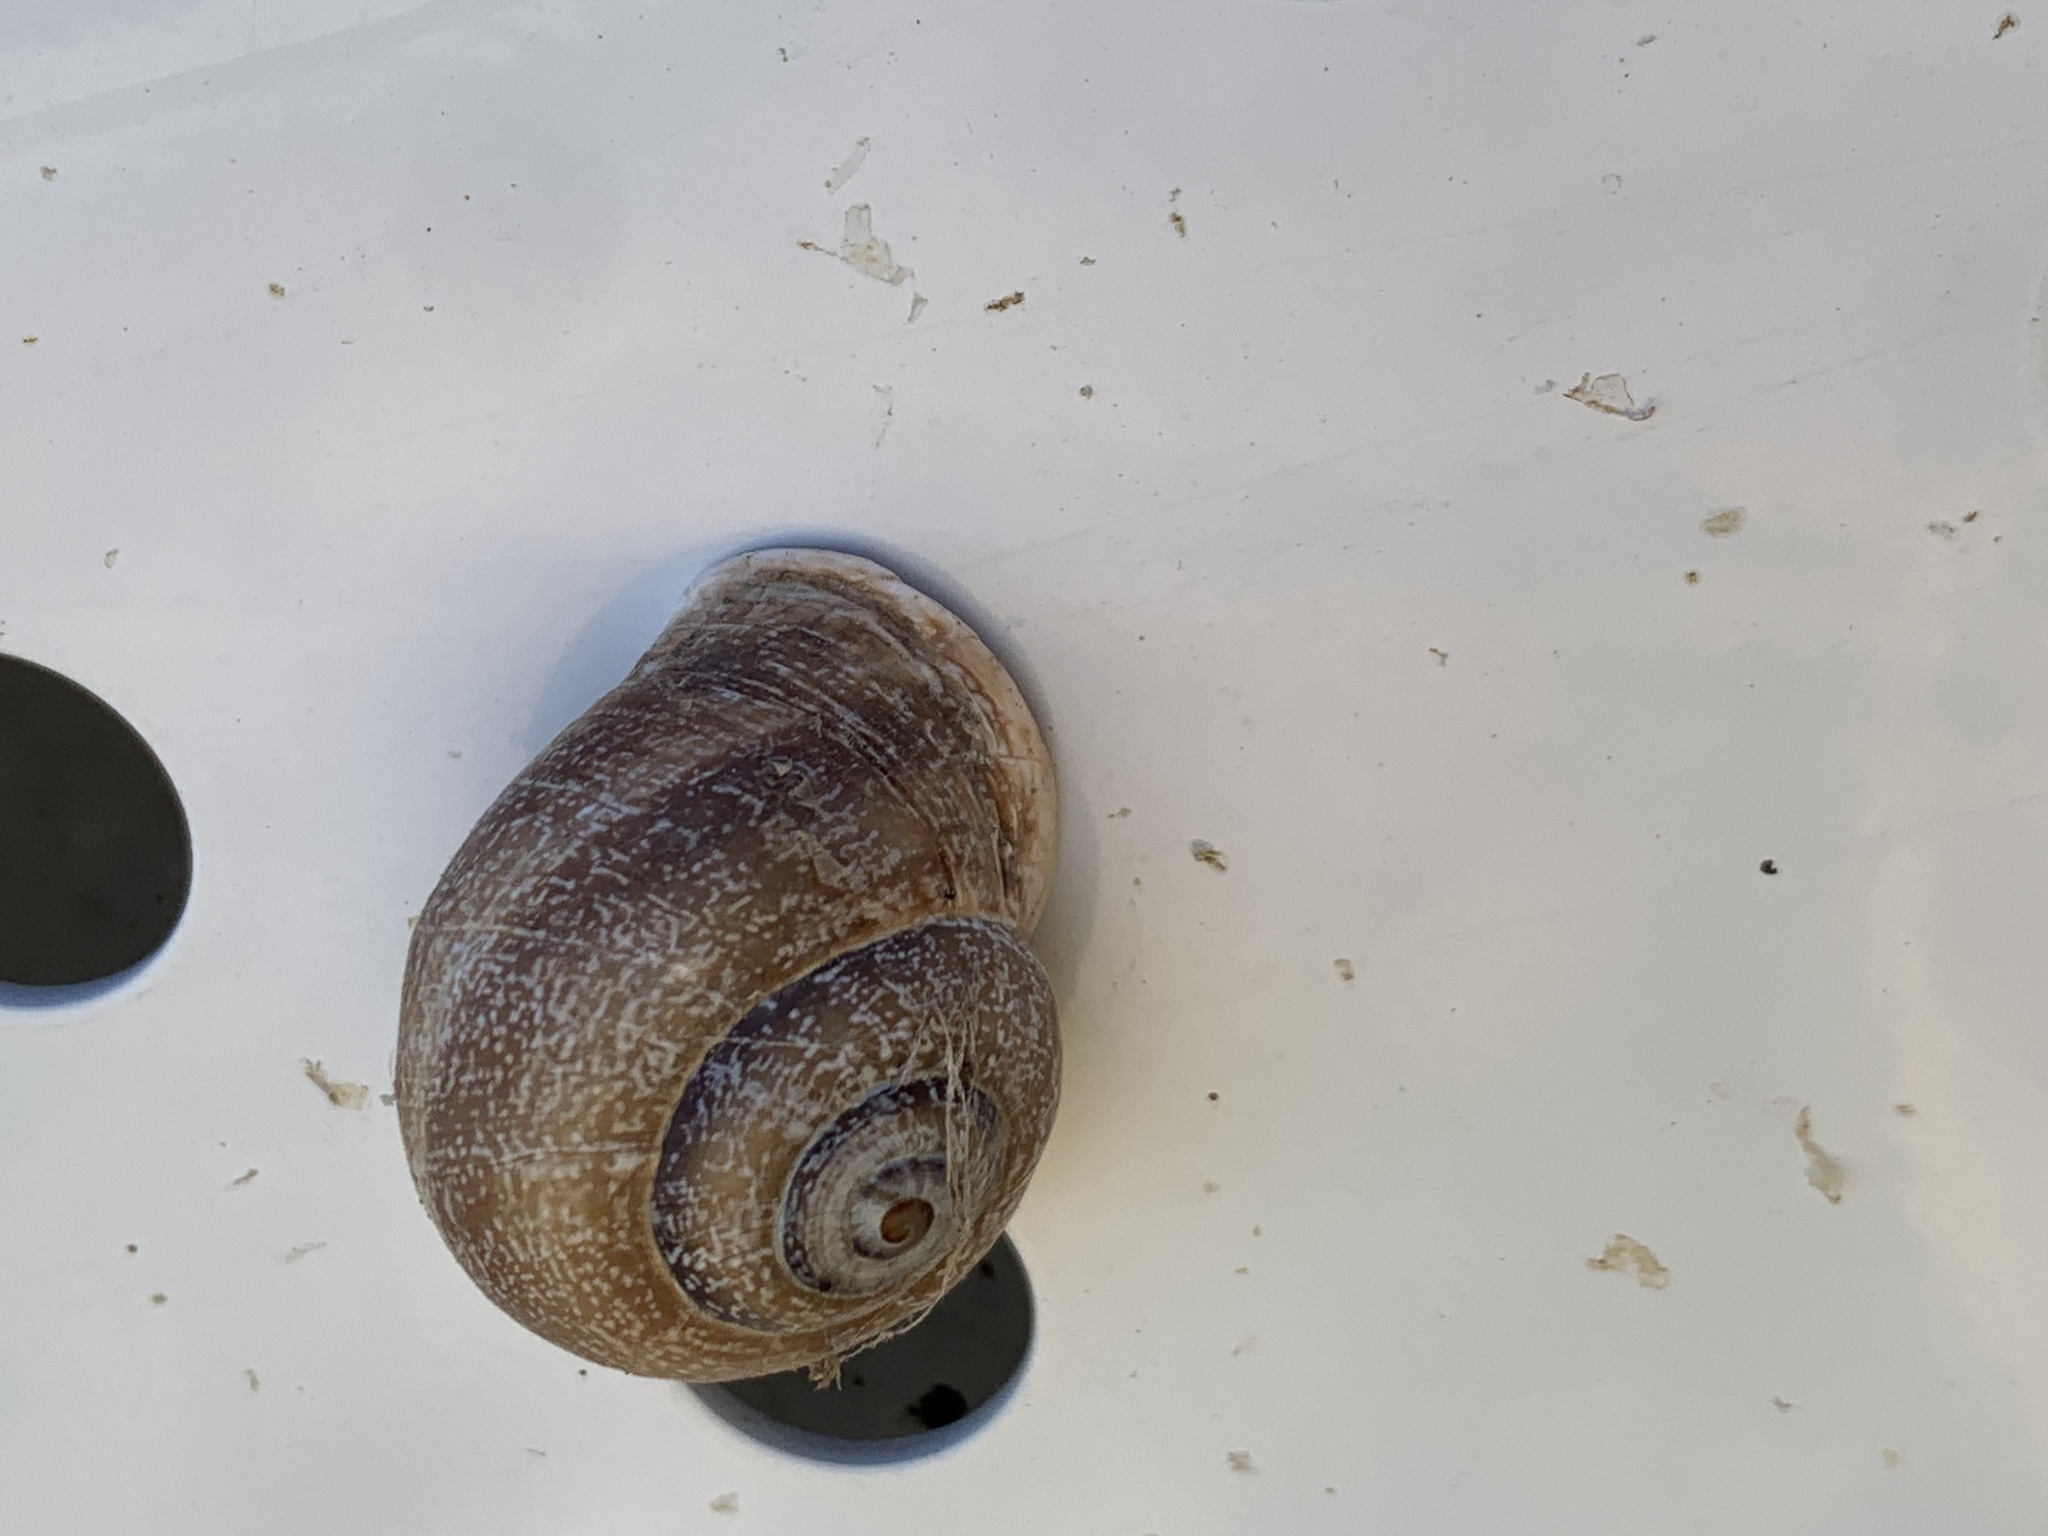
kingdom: Animalia
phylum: Mollusca
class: Gastropoda
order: Stylommatophora
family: Helicidae
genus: Otala
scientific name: Otala punctata
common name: Milk snail
